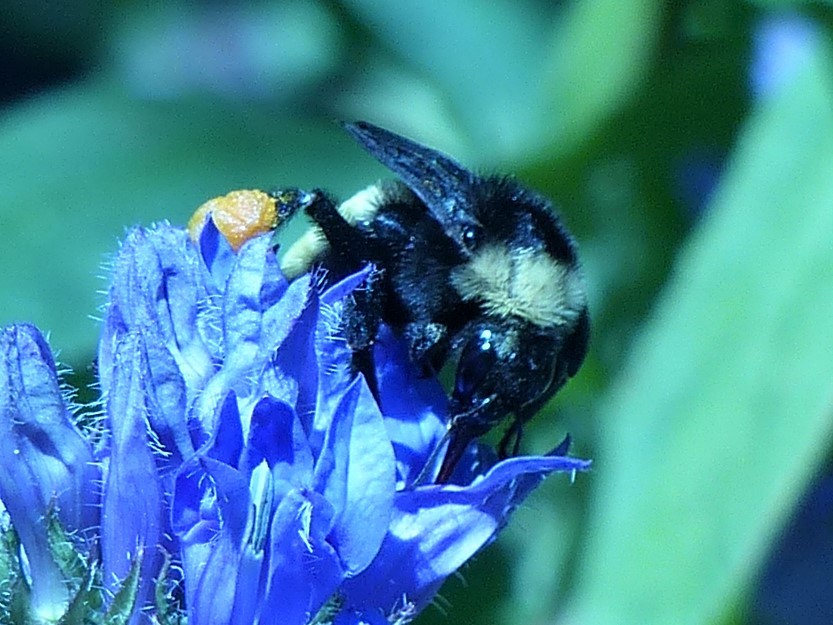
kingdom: Animalia
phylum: Arthropoda
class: Insecta
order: Hymenoptera
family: Apidae
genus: Bombus
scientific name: Bombus pensylvanicus
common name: Bumble bee
